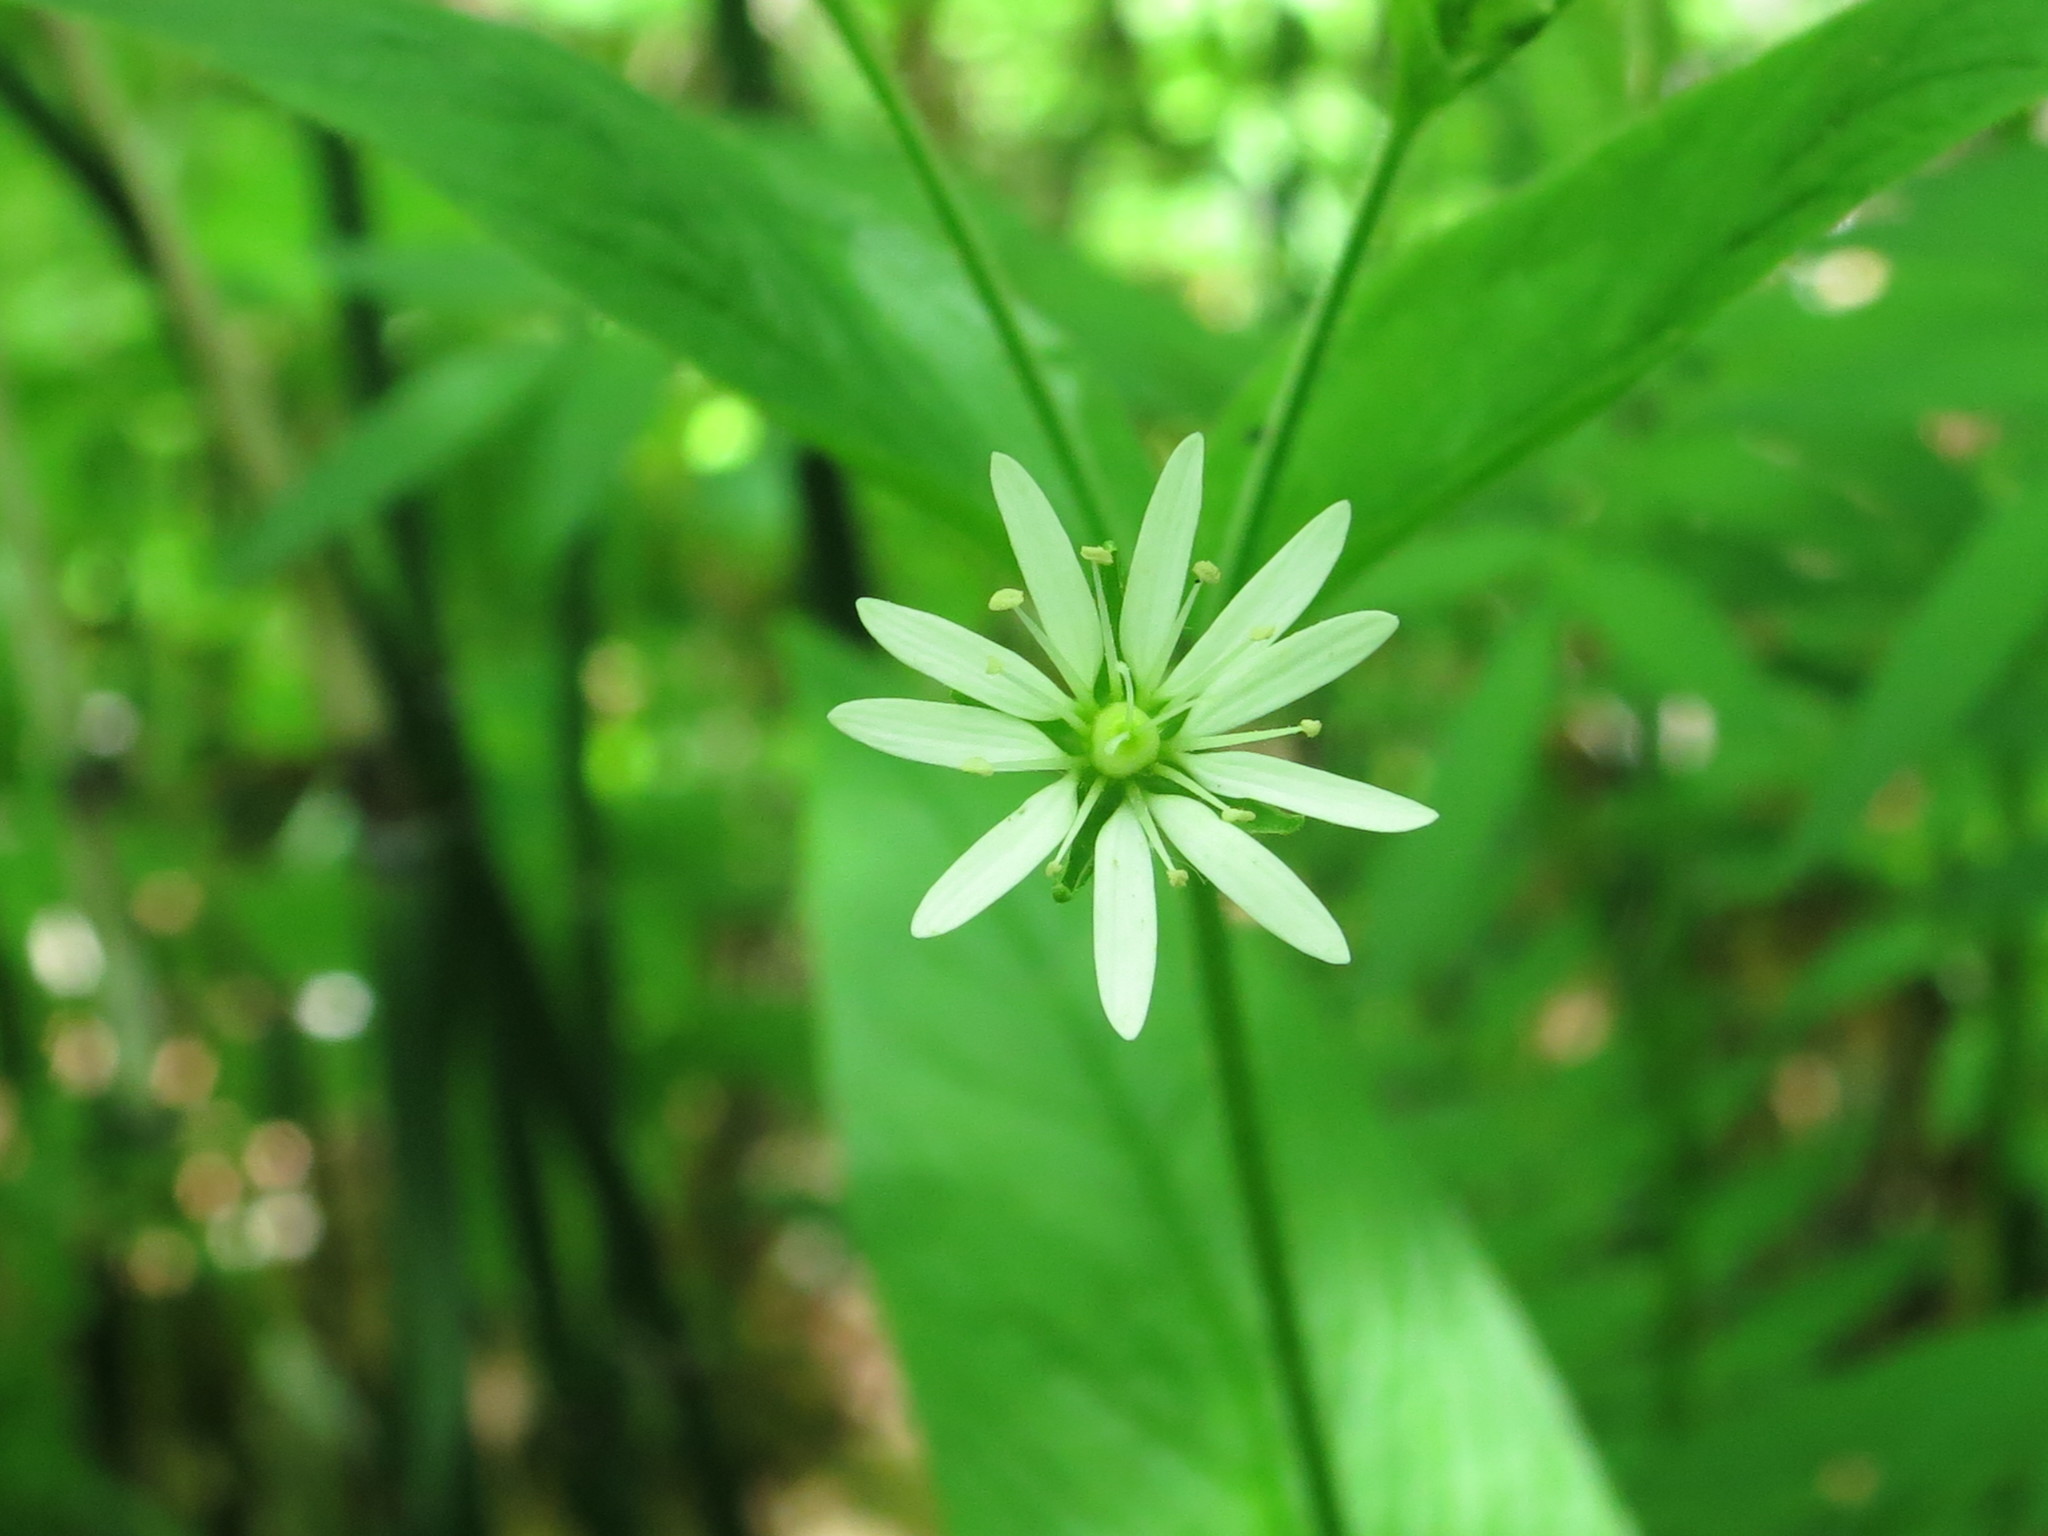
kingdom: Plantae
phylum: Tracheophyta
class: Magnoliopsida
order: Caryophyllales
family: Caryophyllaceae
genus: Stellaria
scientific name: Stellaria bungeana
